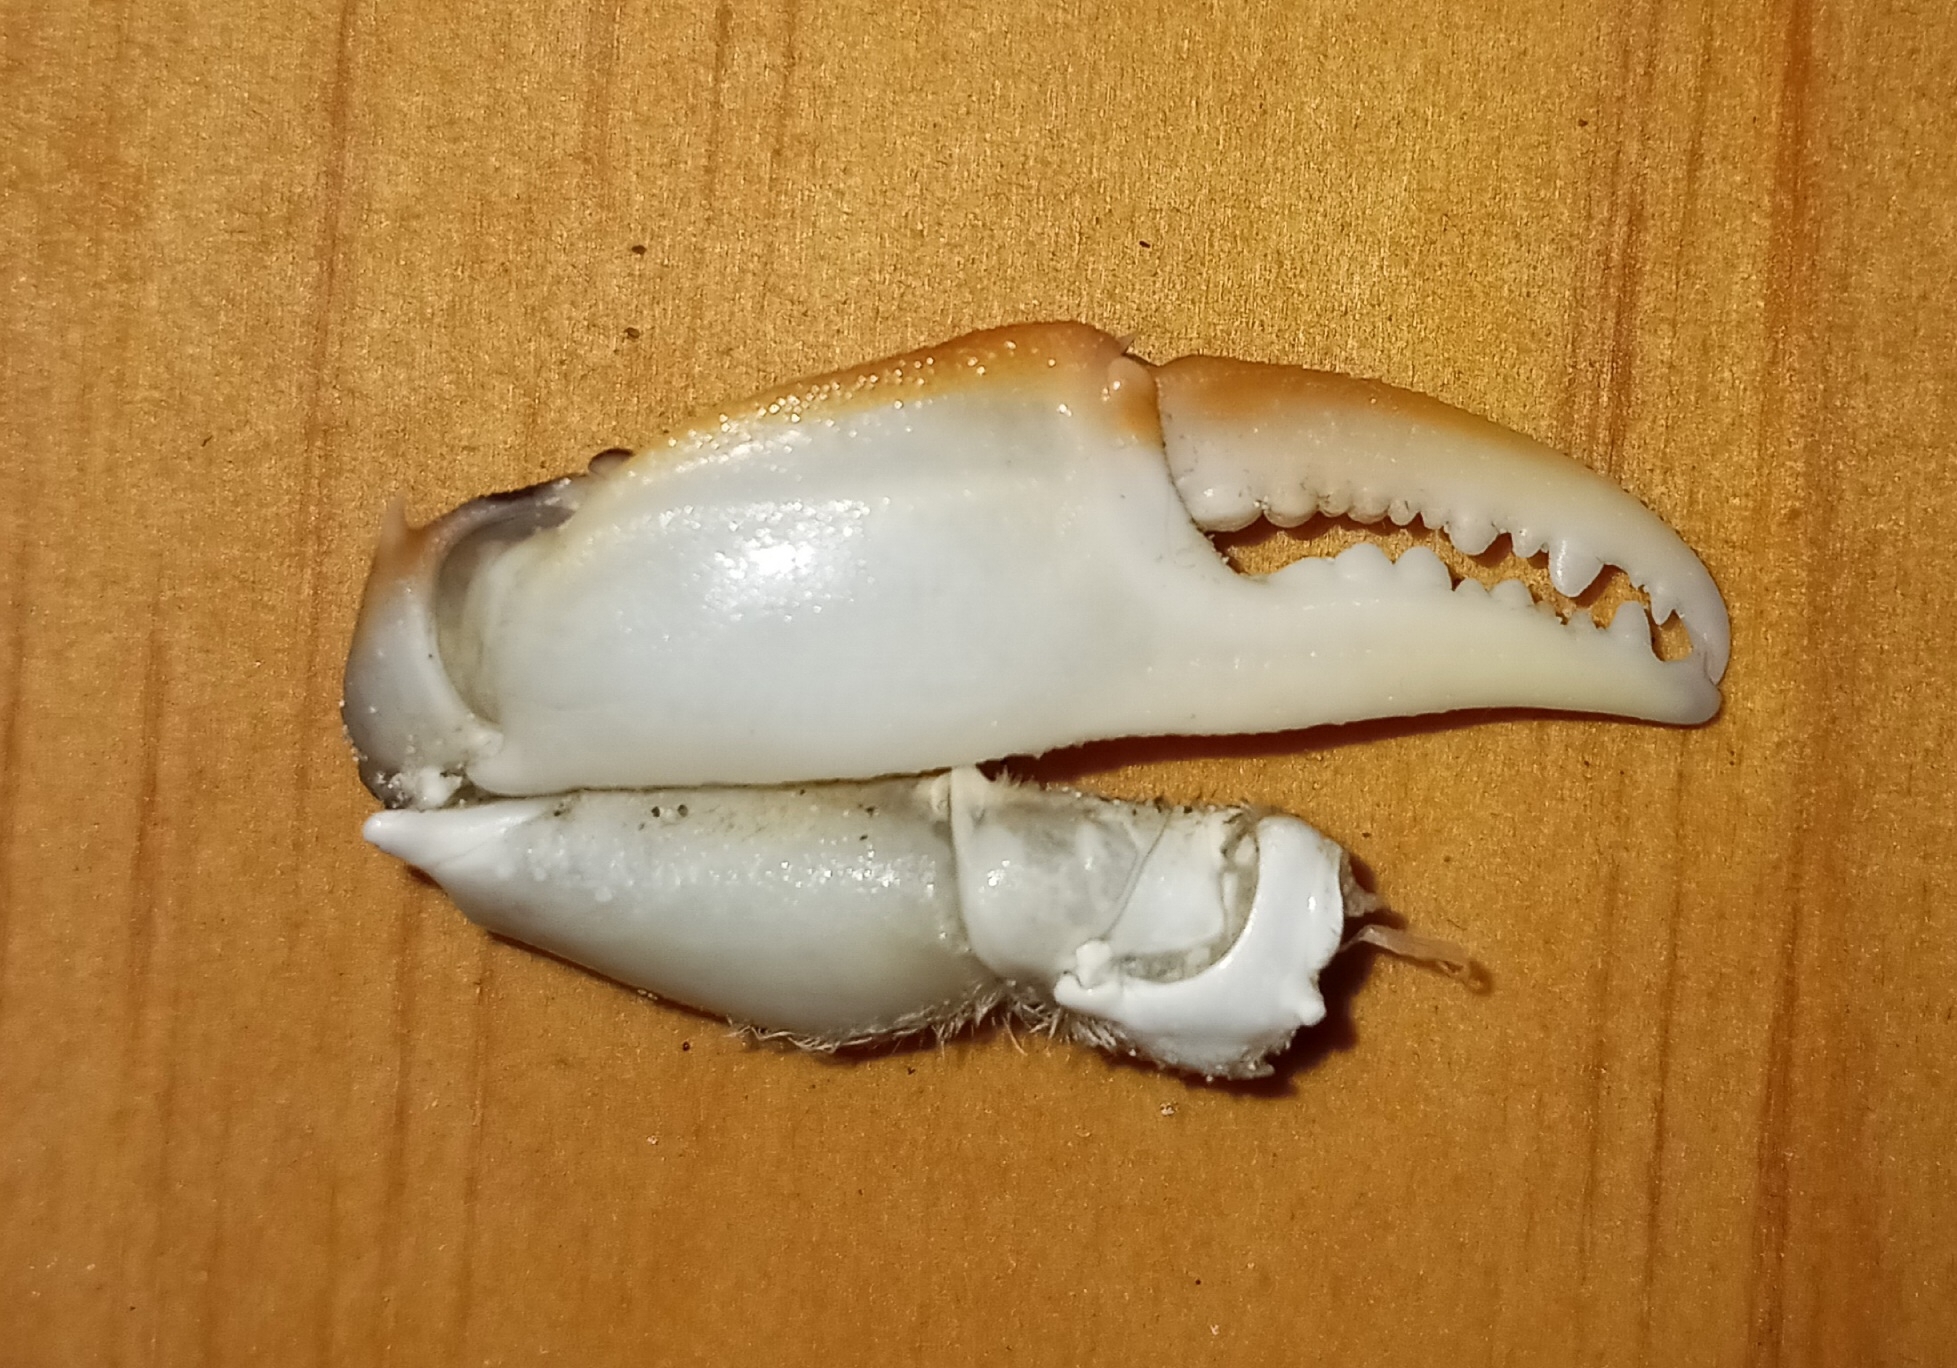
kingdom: Animalia
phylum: Arthropoda
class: Malacostraca
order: Decapoda
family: Ovalipidae
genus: Ovalipes
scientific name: Ovalipes ocellatus
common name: Lady crab
